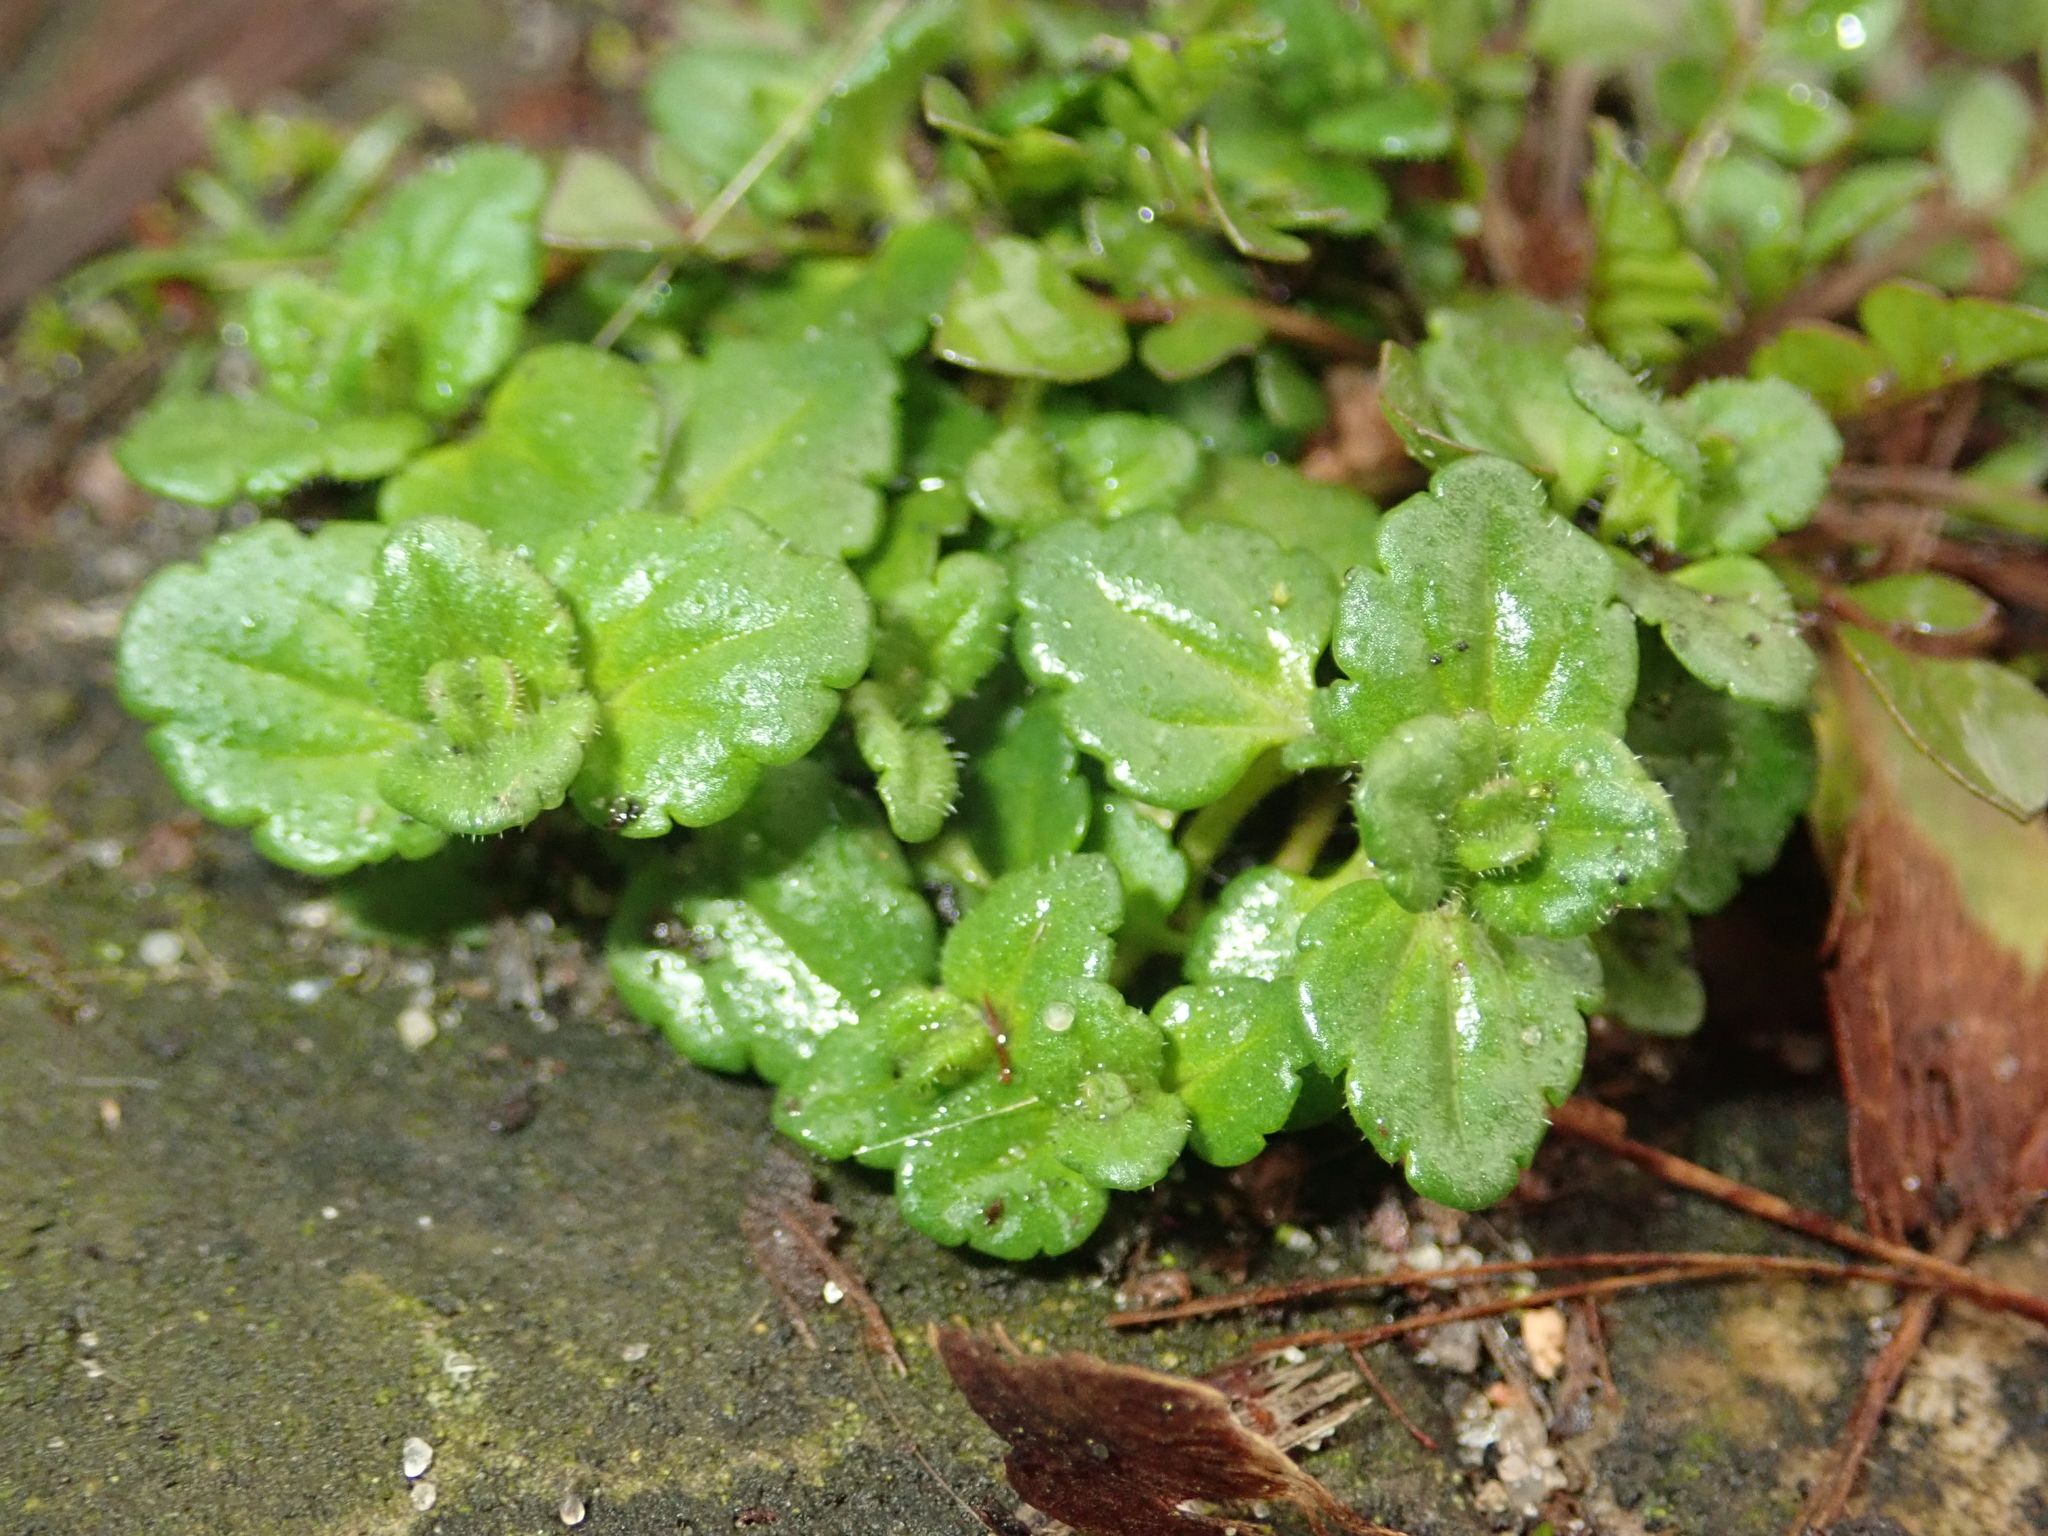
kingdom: Plantae
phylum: Tracheophyta
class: Magnoliopsida
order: Lamiales
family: Plantaginaceae
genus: Veronica
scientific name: Veronica arvensis
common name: Corn speedwell
